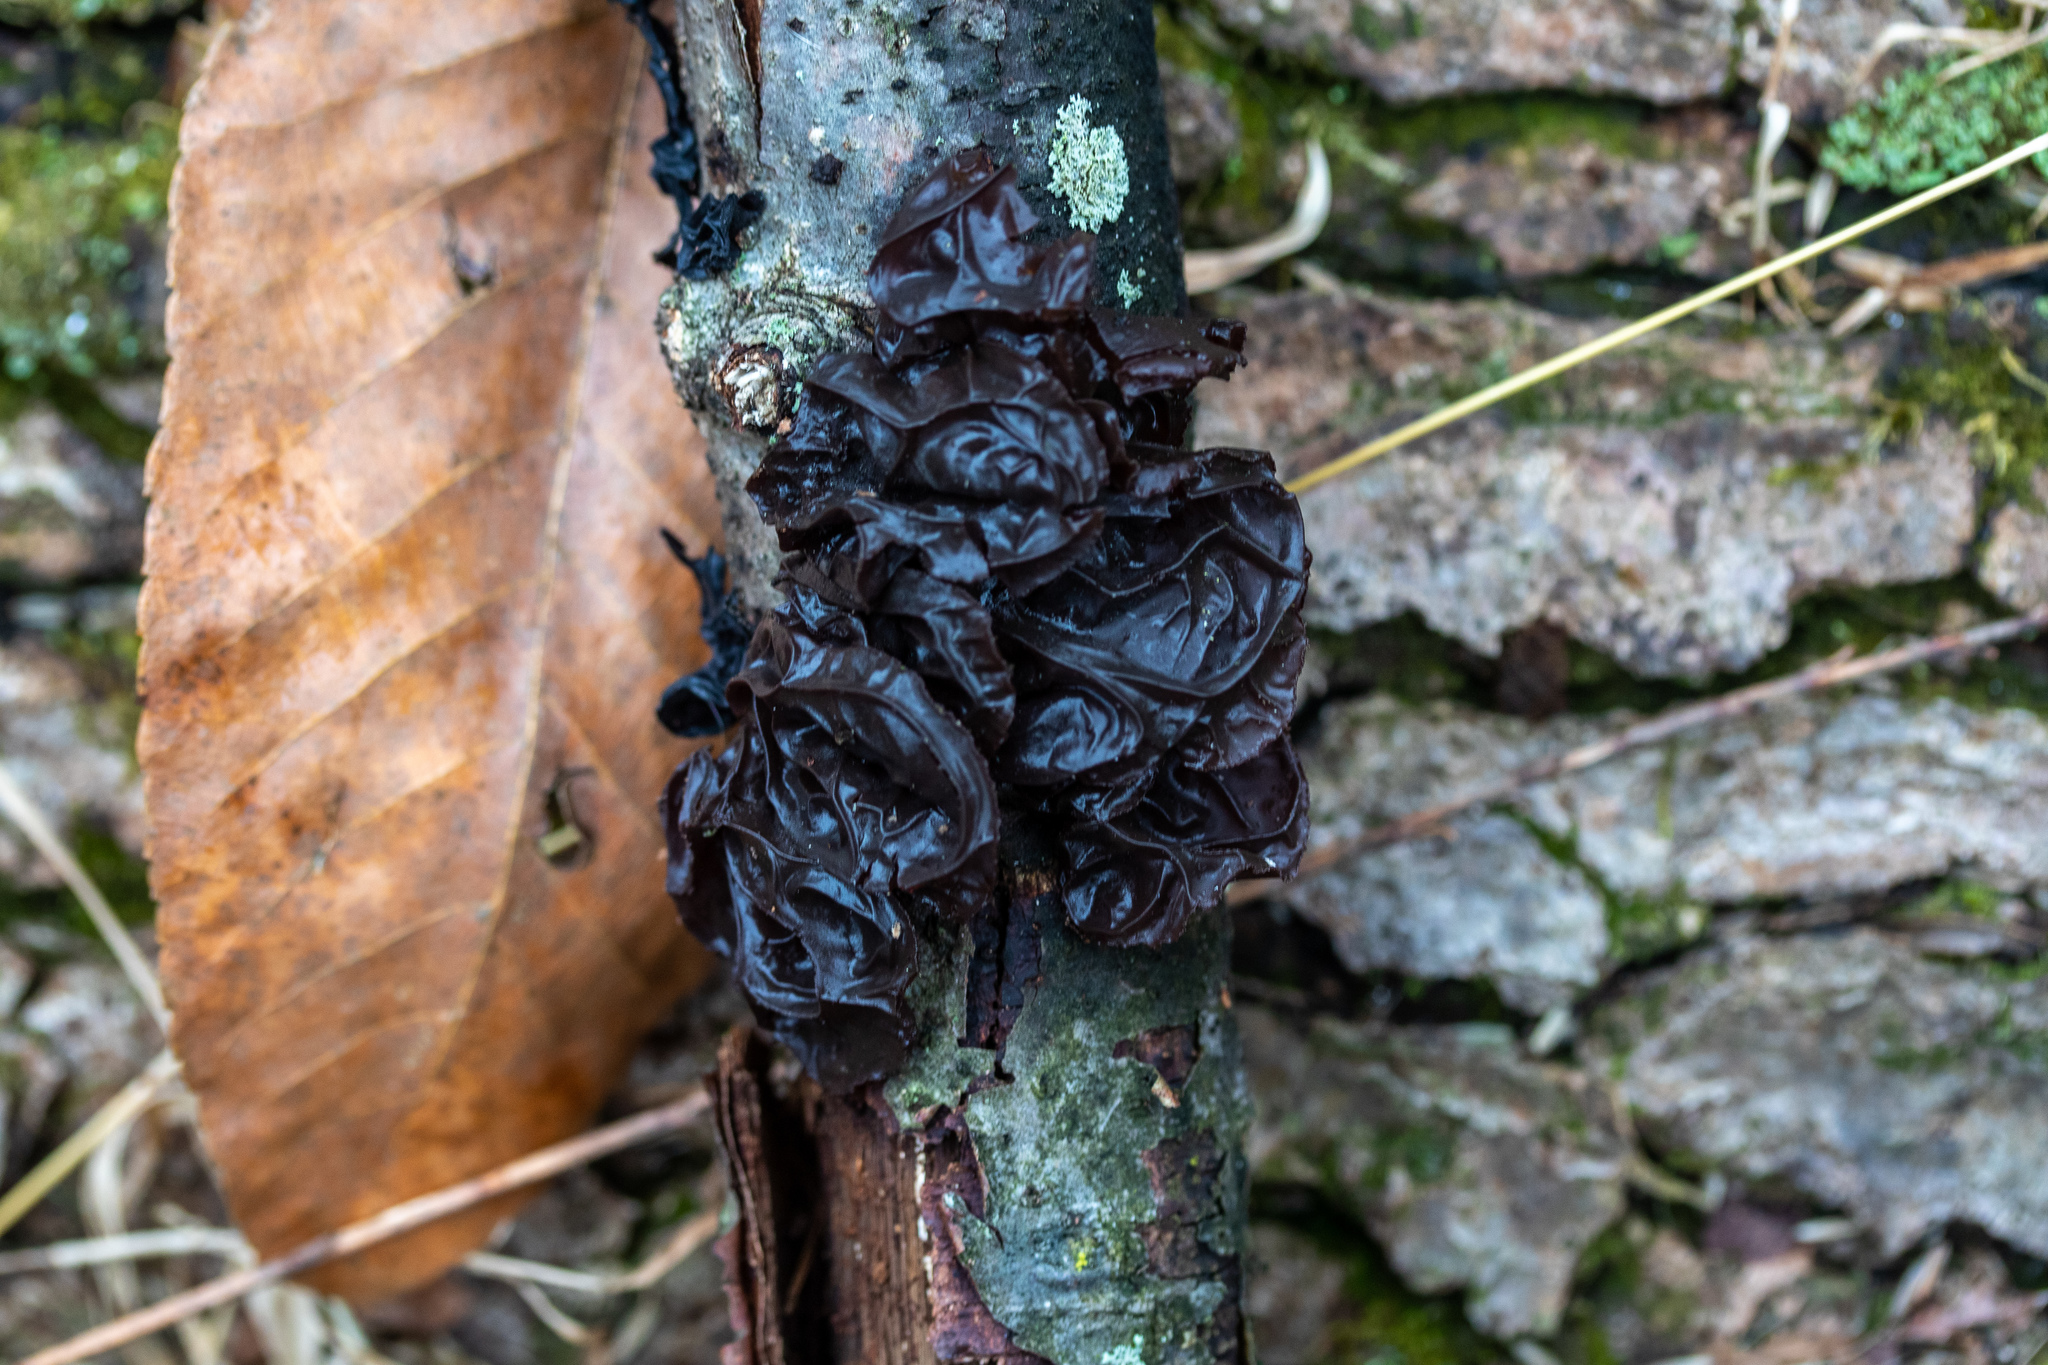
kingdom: Fungi
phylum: Basidiomycota
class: Agaricomycetes
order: Auriculariales
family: Auriculariaceae
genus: Exidia
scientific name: Exidia
